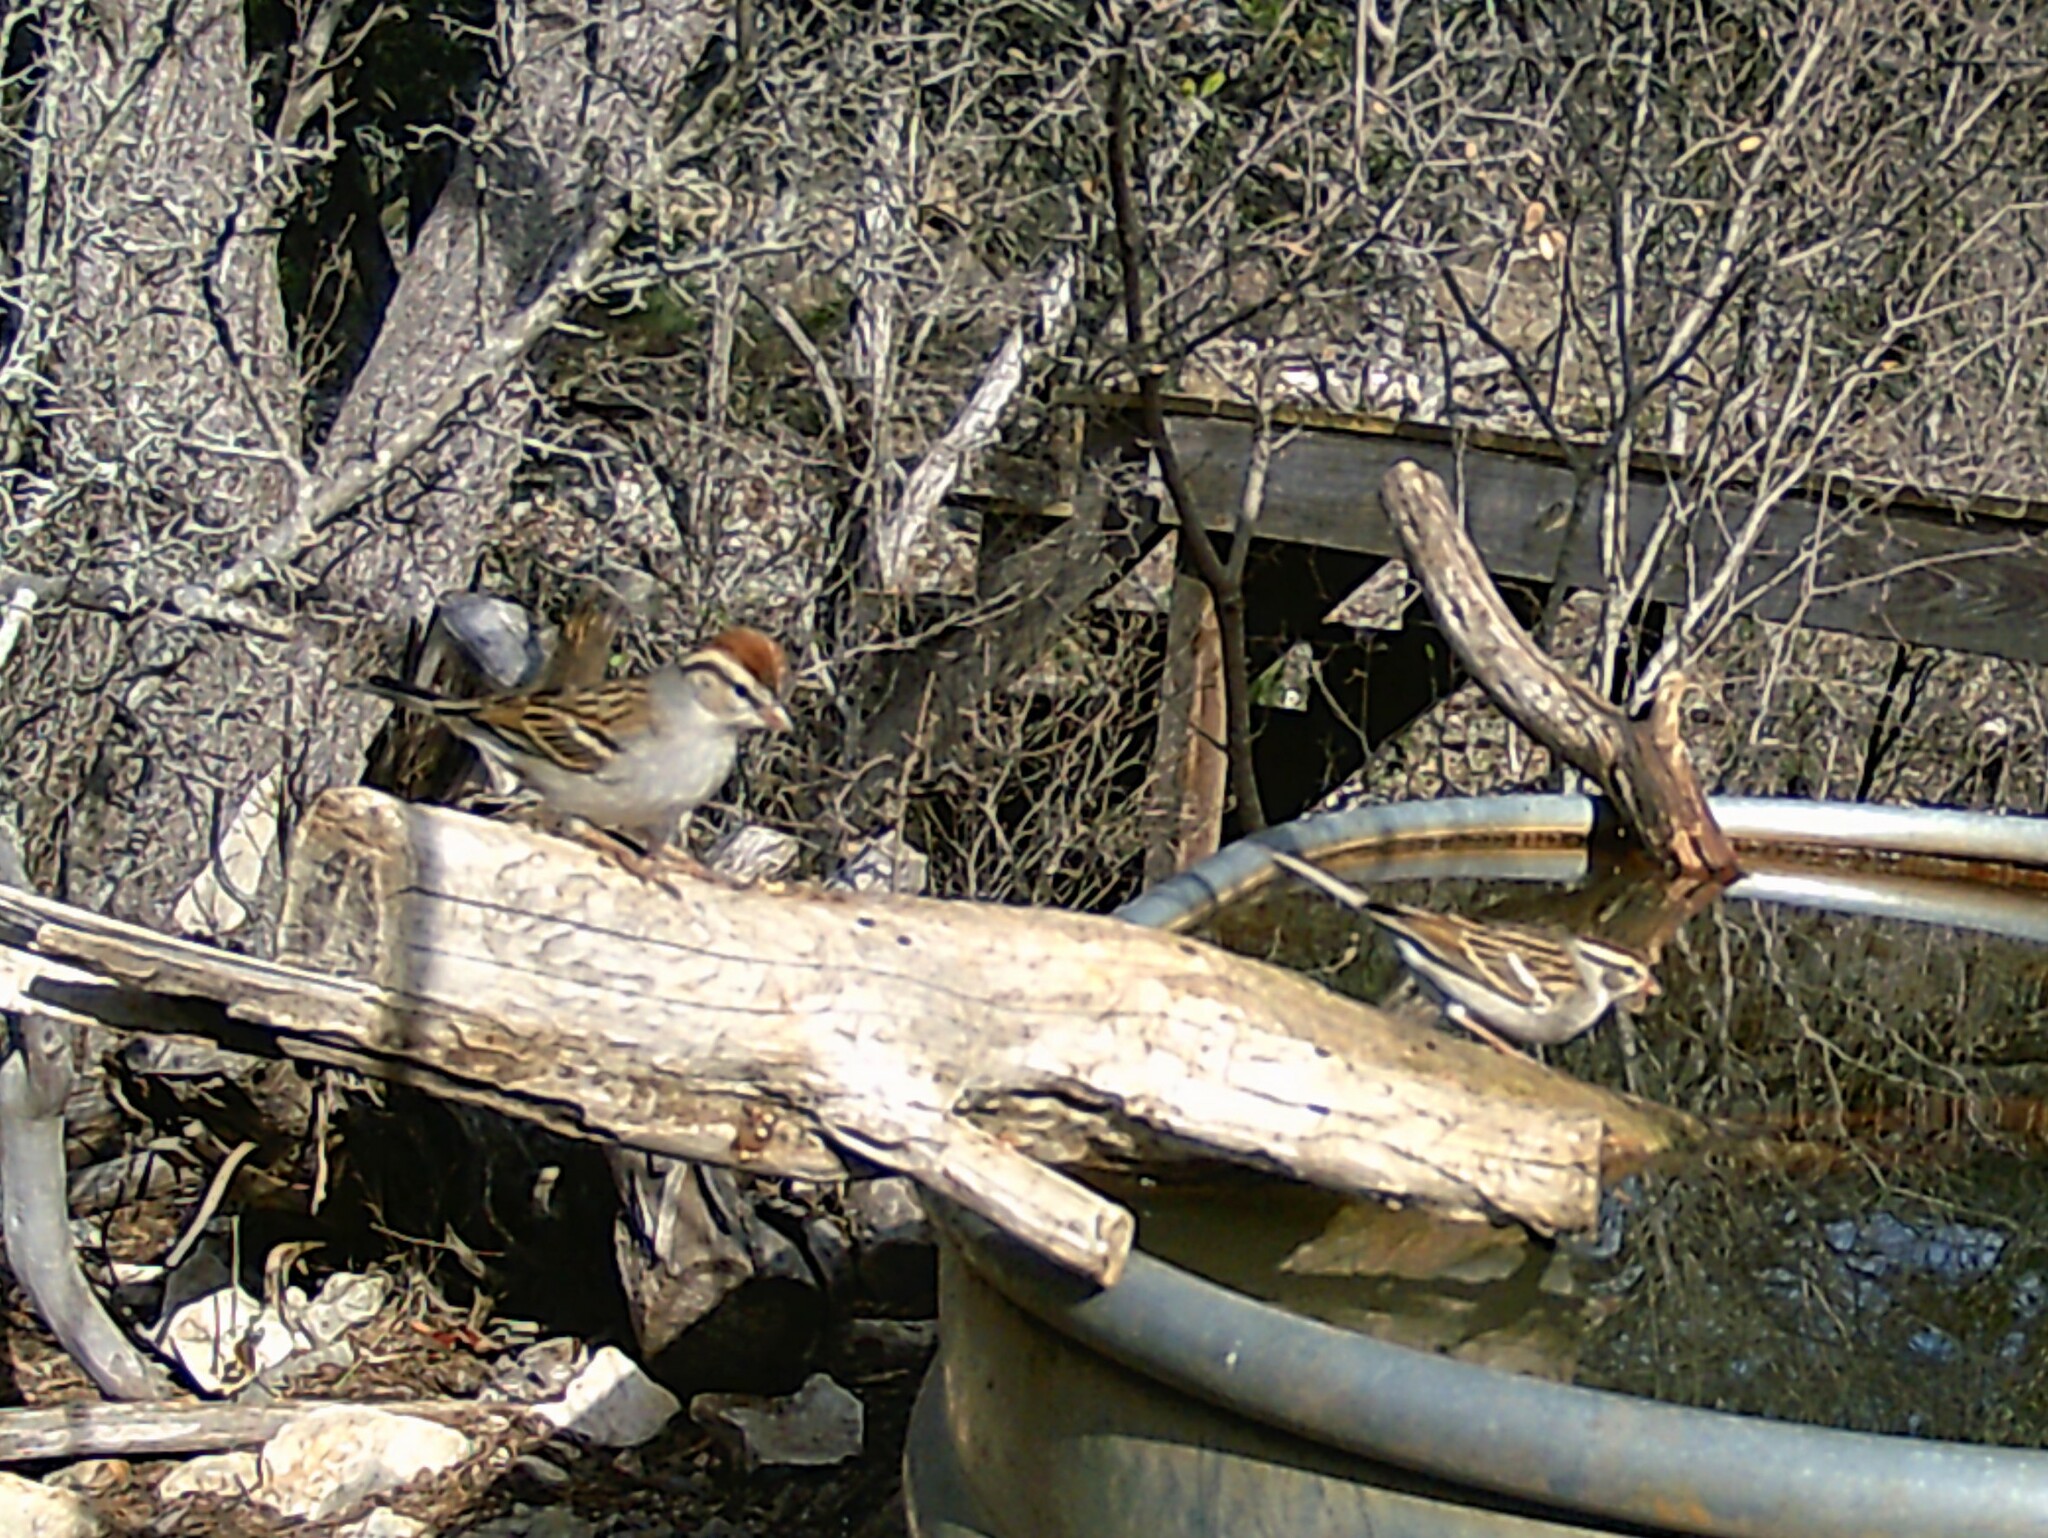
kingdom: Animalia
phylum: Chordata
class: Aves
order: Passeriformes
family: Passerellidae
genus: Spizella
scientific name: Spizella passerina
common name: Chipping sparrow
